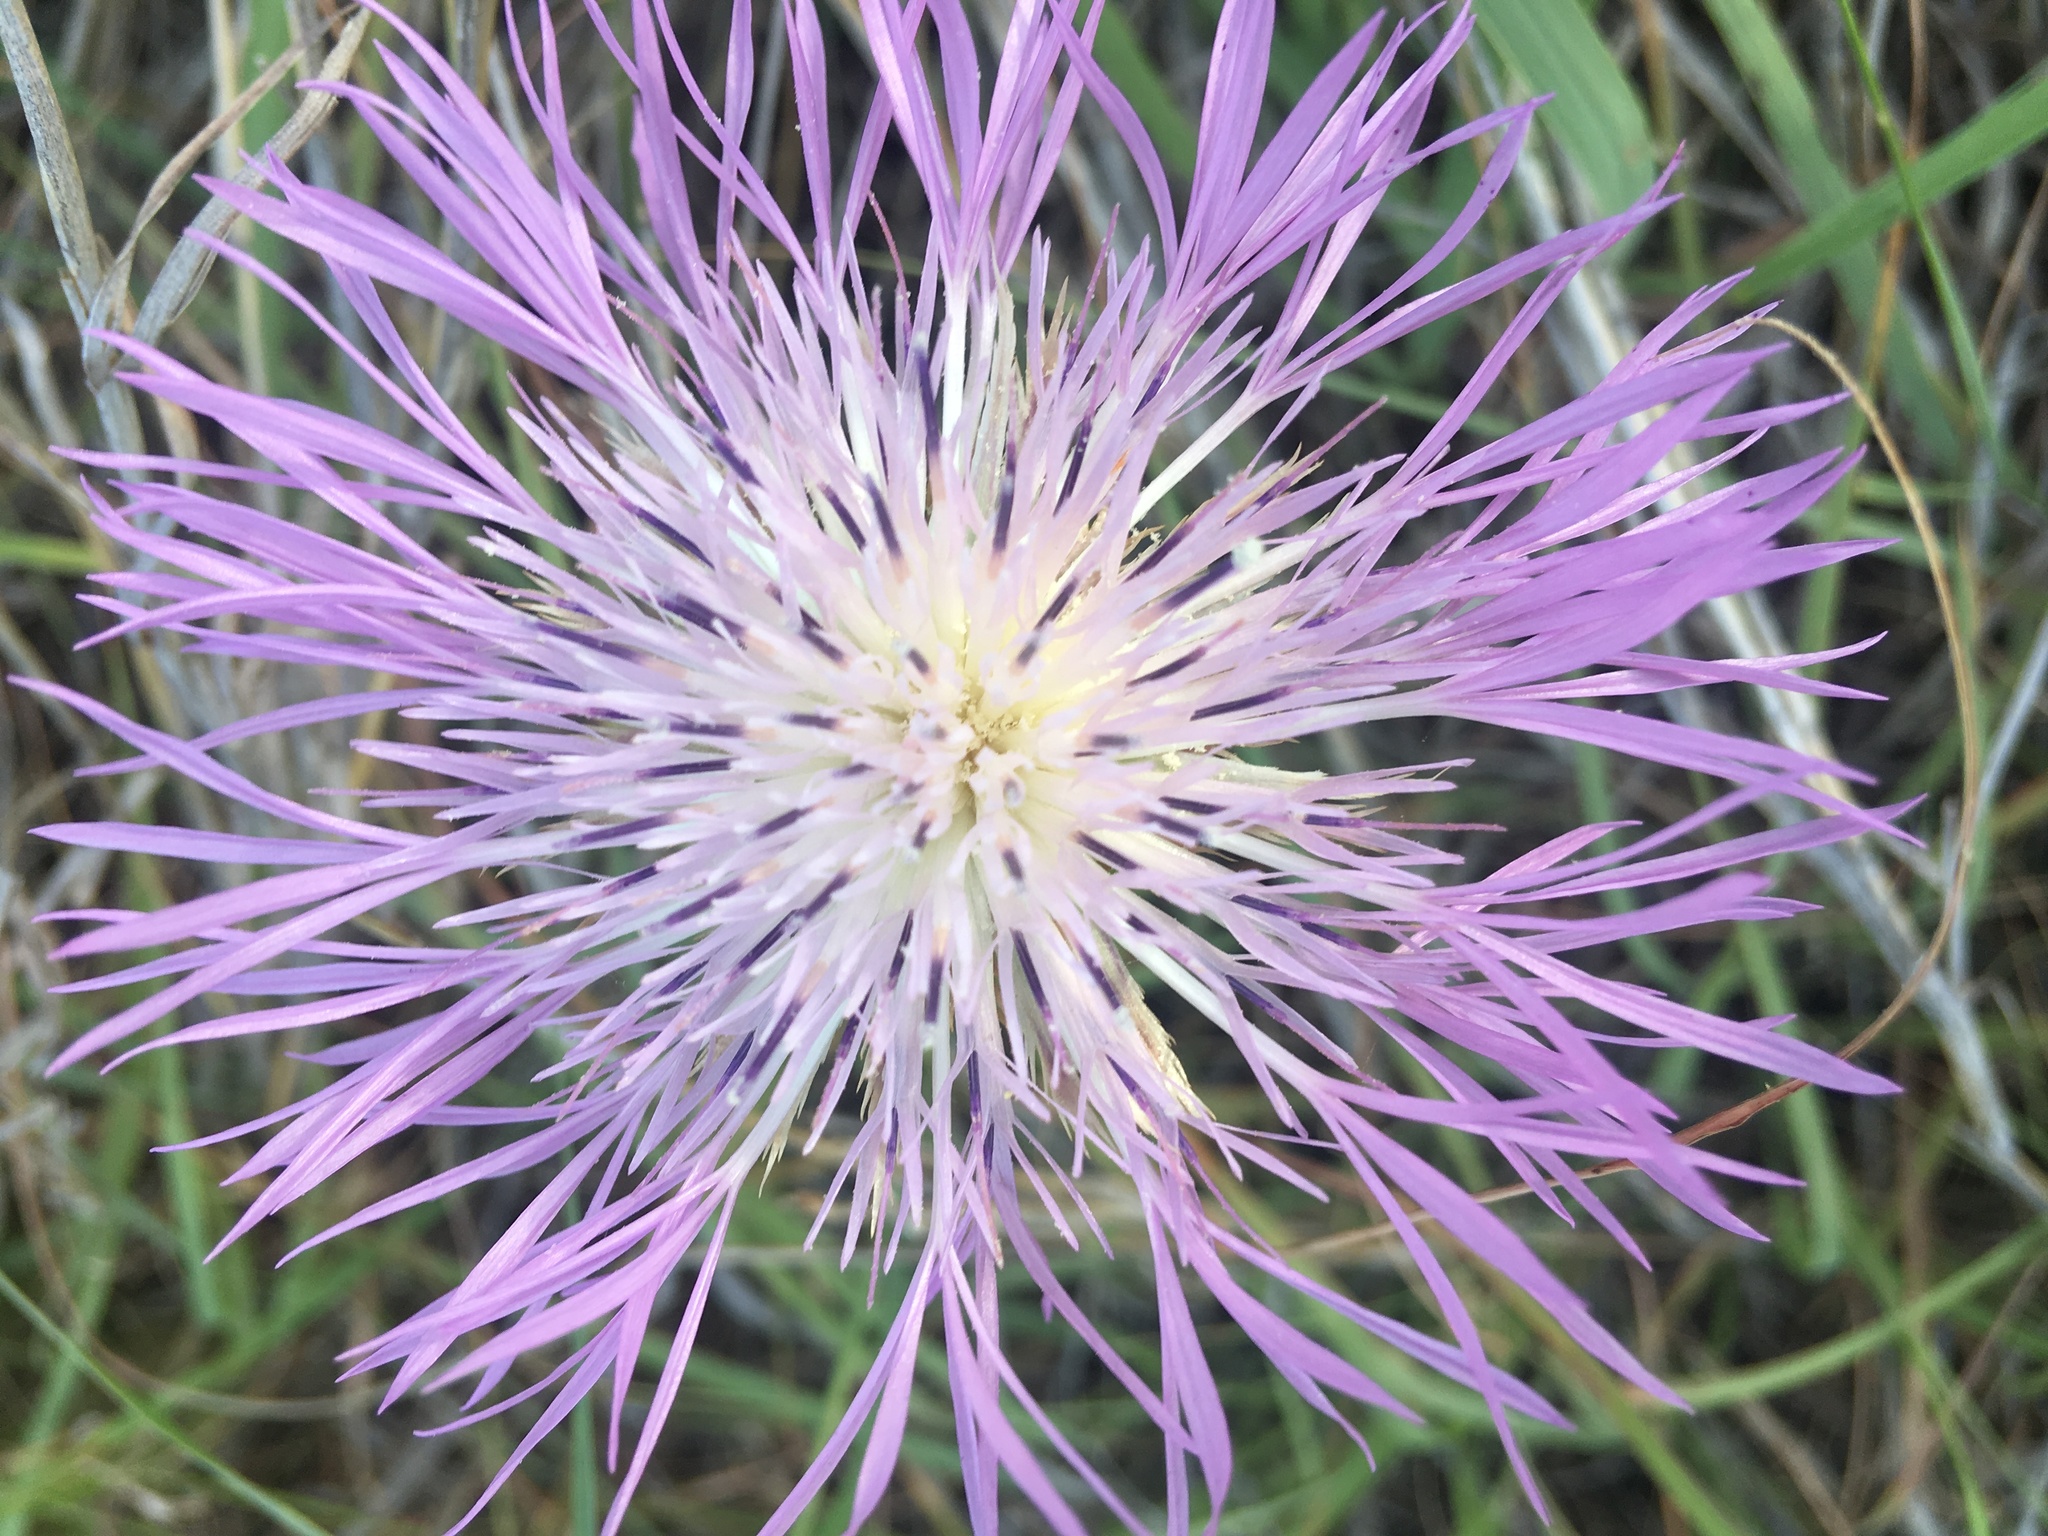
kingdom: Plantae
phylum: Tracheophyta
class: Magnoliopsida
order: Asterales
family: Asteraceae
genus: Plectocephalus
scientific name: Plectocephalus americanus
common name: American basket-flower
